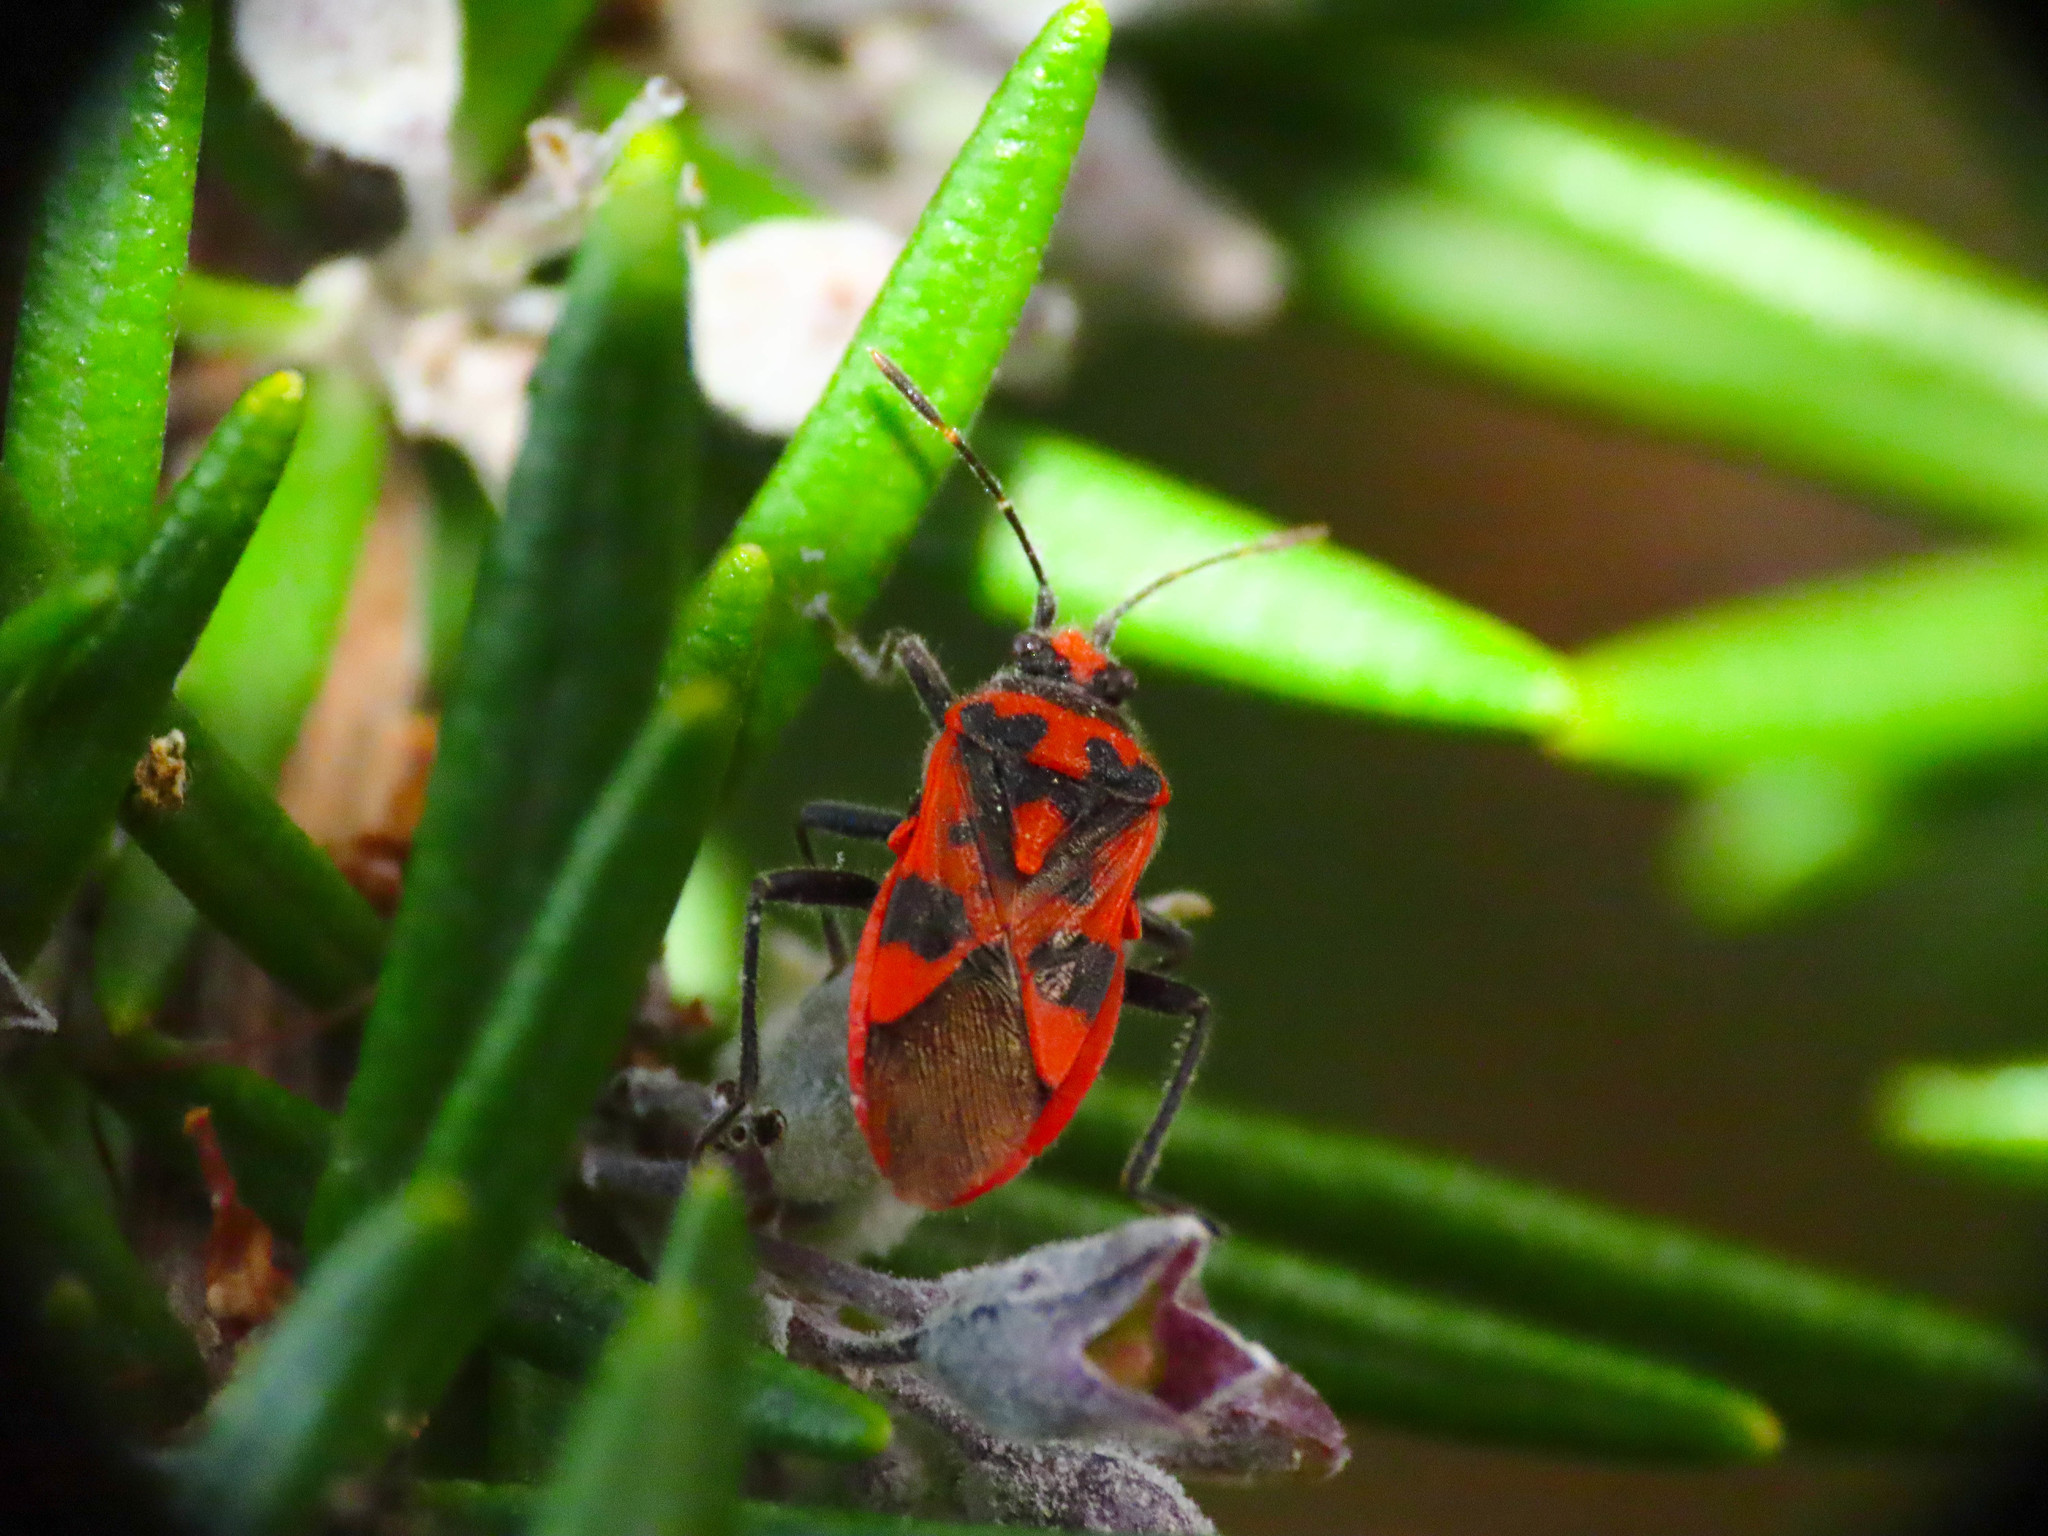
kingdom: Animalia
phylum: Arthropoda
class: Insecta
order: Hemiptera
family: Rhopalidae
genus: Corizus
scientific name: Corizus hyoscyami
